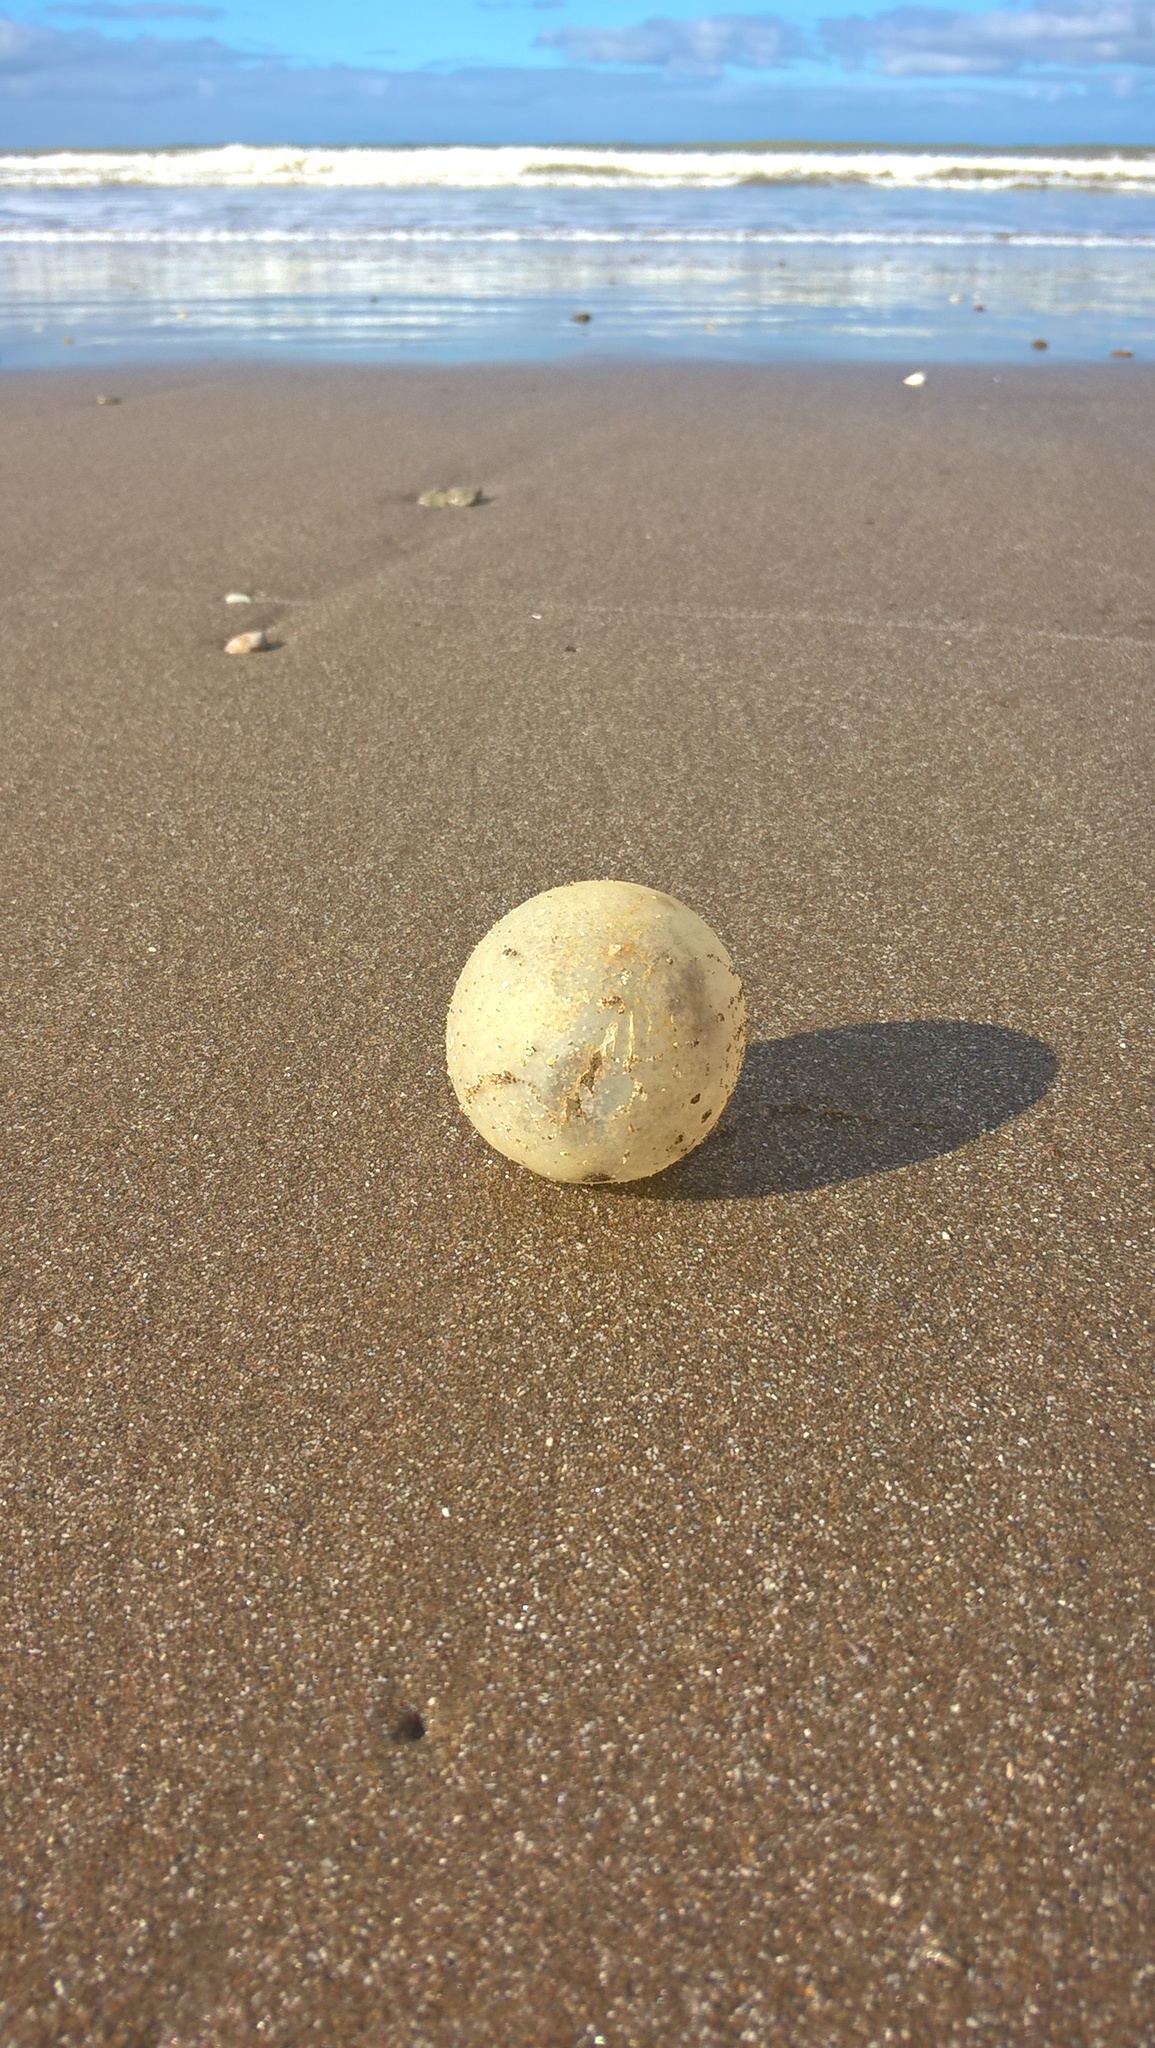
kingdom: Animalia
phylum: Mollusca
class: Gastropoda
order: Neogastropoda
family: Volutidae
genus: Pachycymbiola
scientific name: Pachycymbiola brasiliana
